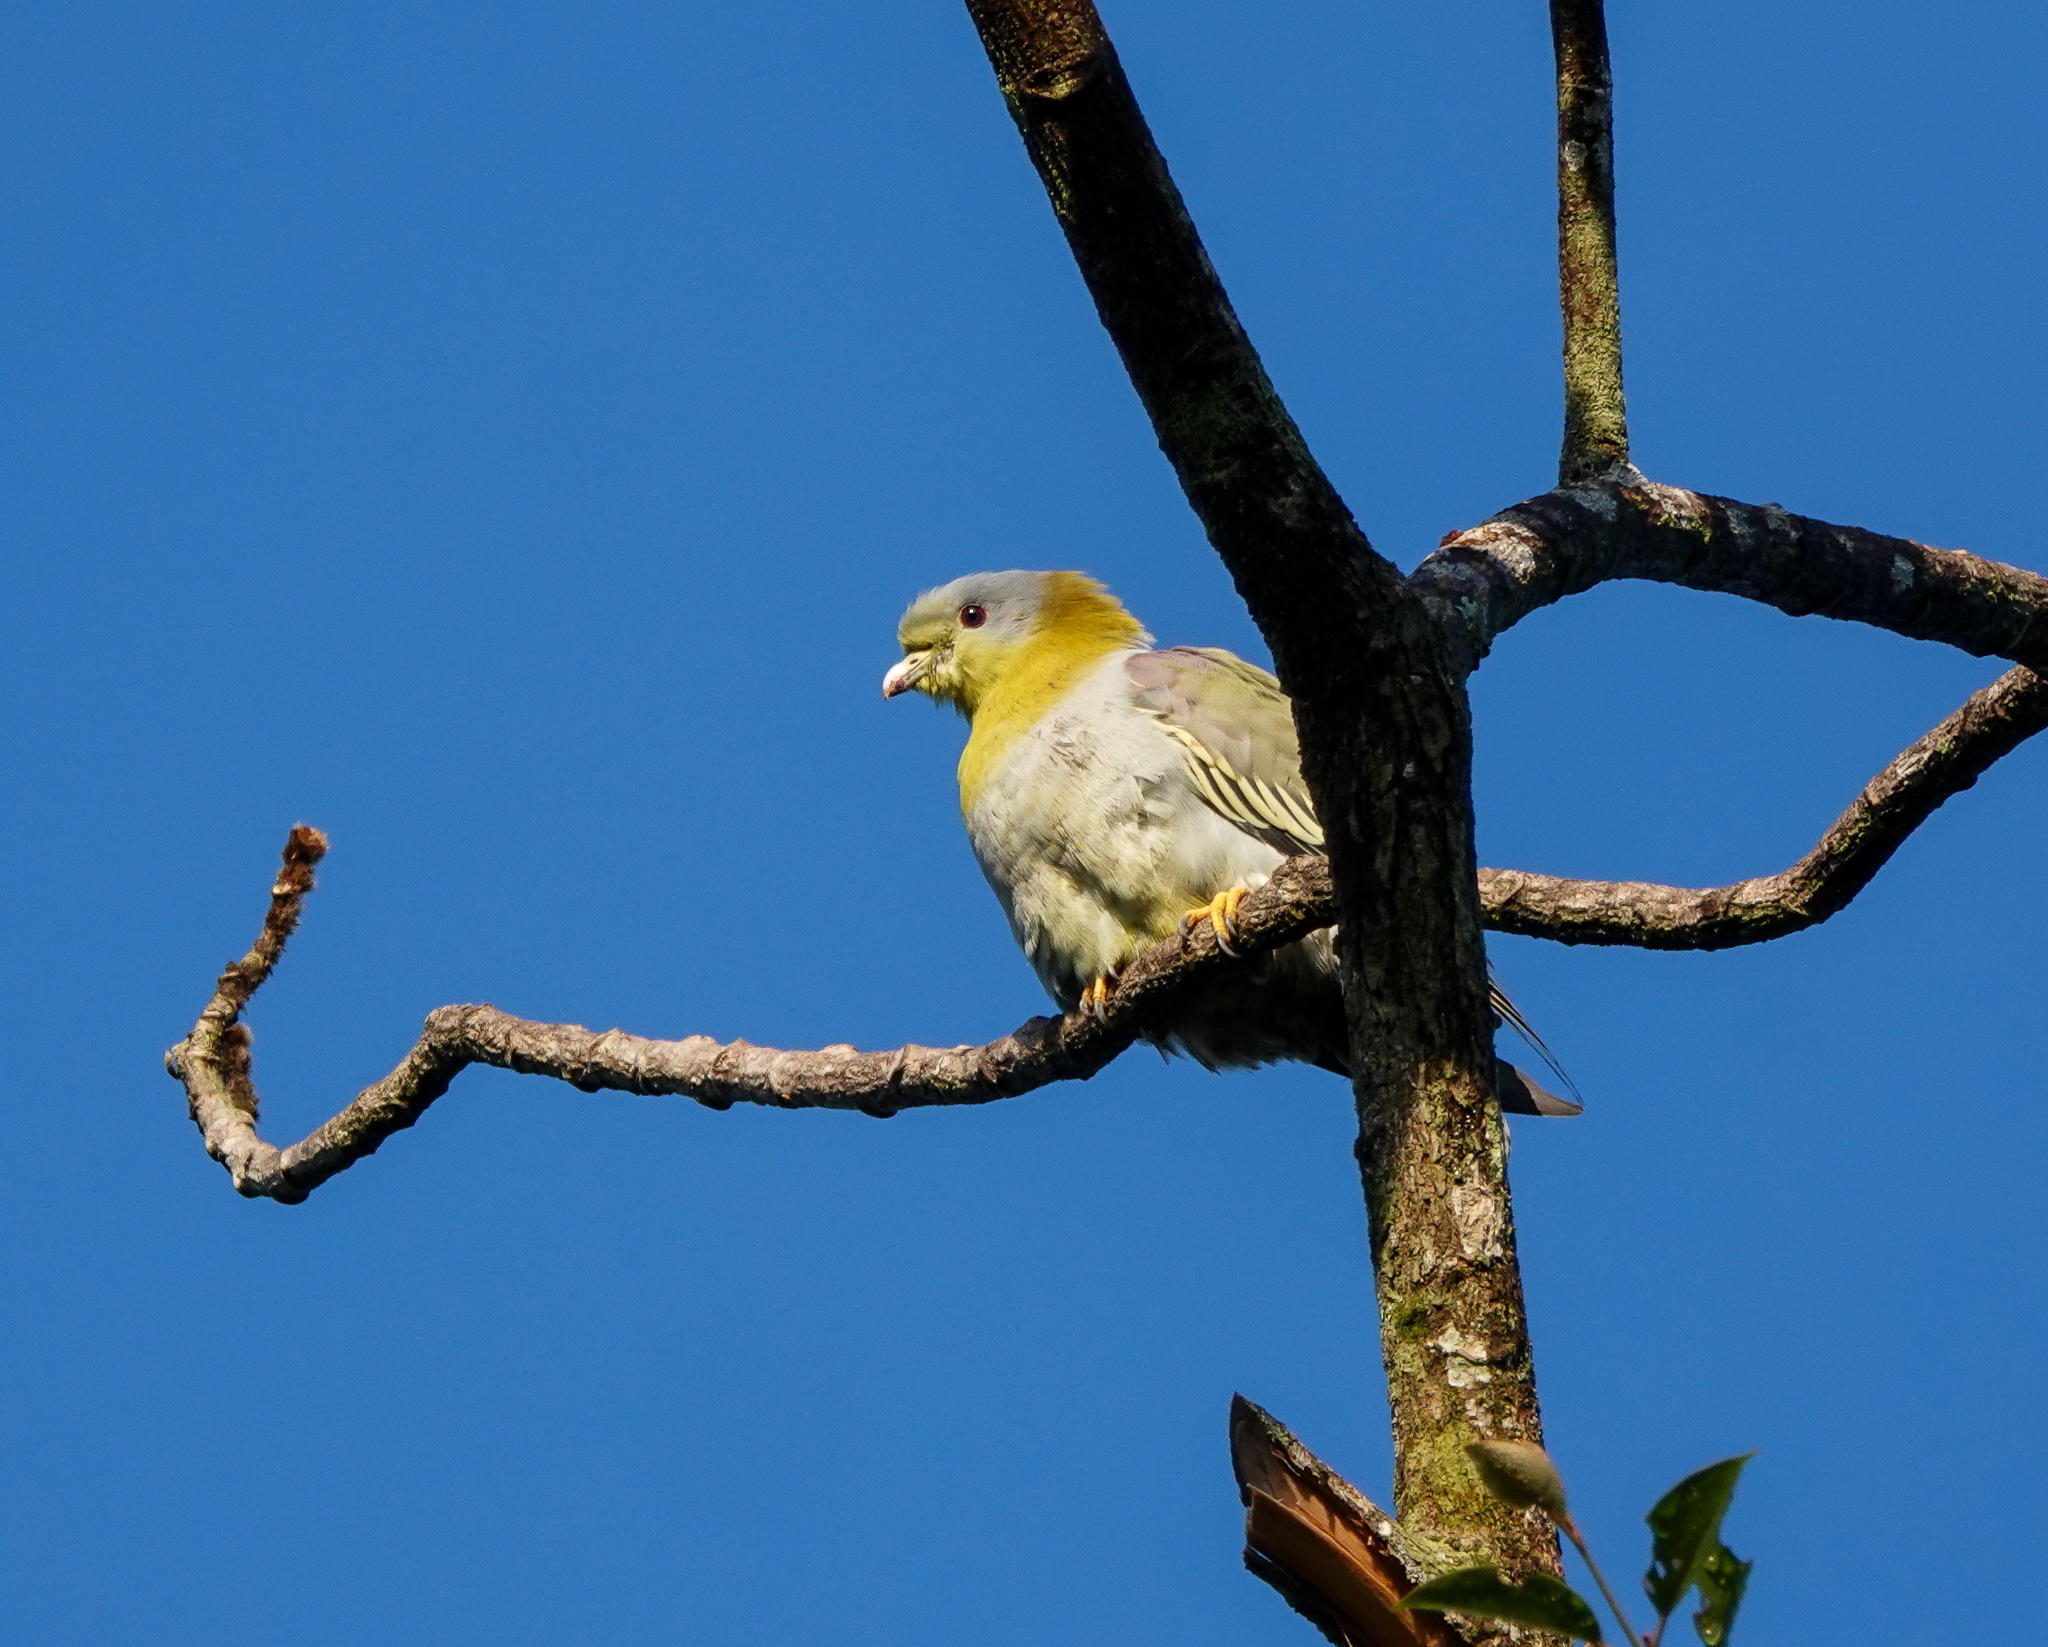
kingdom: Animalia
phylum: Chordata
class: Aves
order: Columbiformes
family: Columbidae
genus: Treron
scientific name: Treron phoenicopterus
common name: Yellow-footed green pigeon
